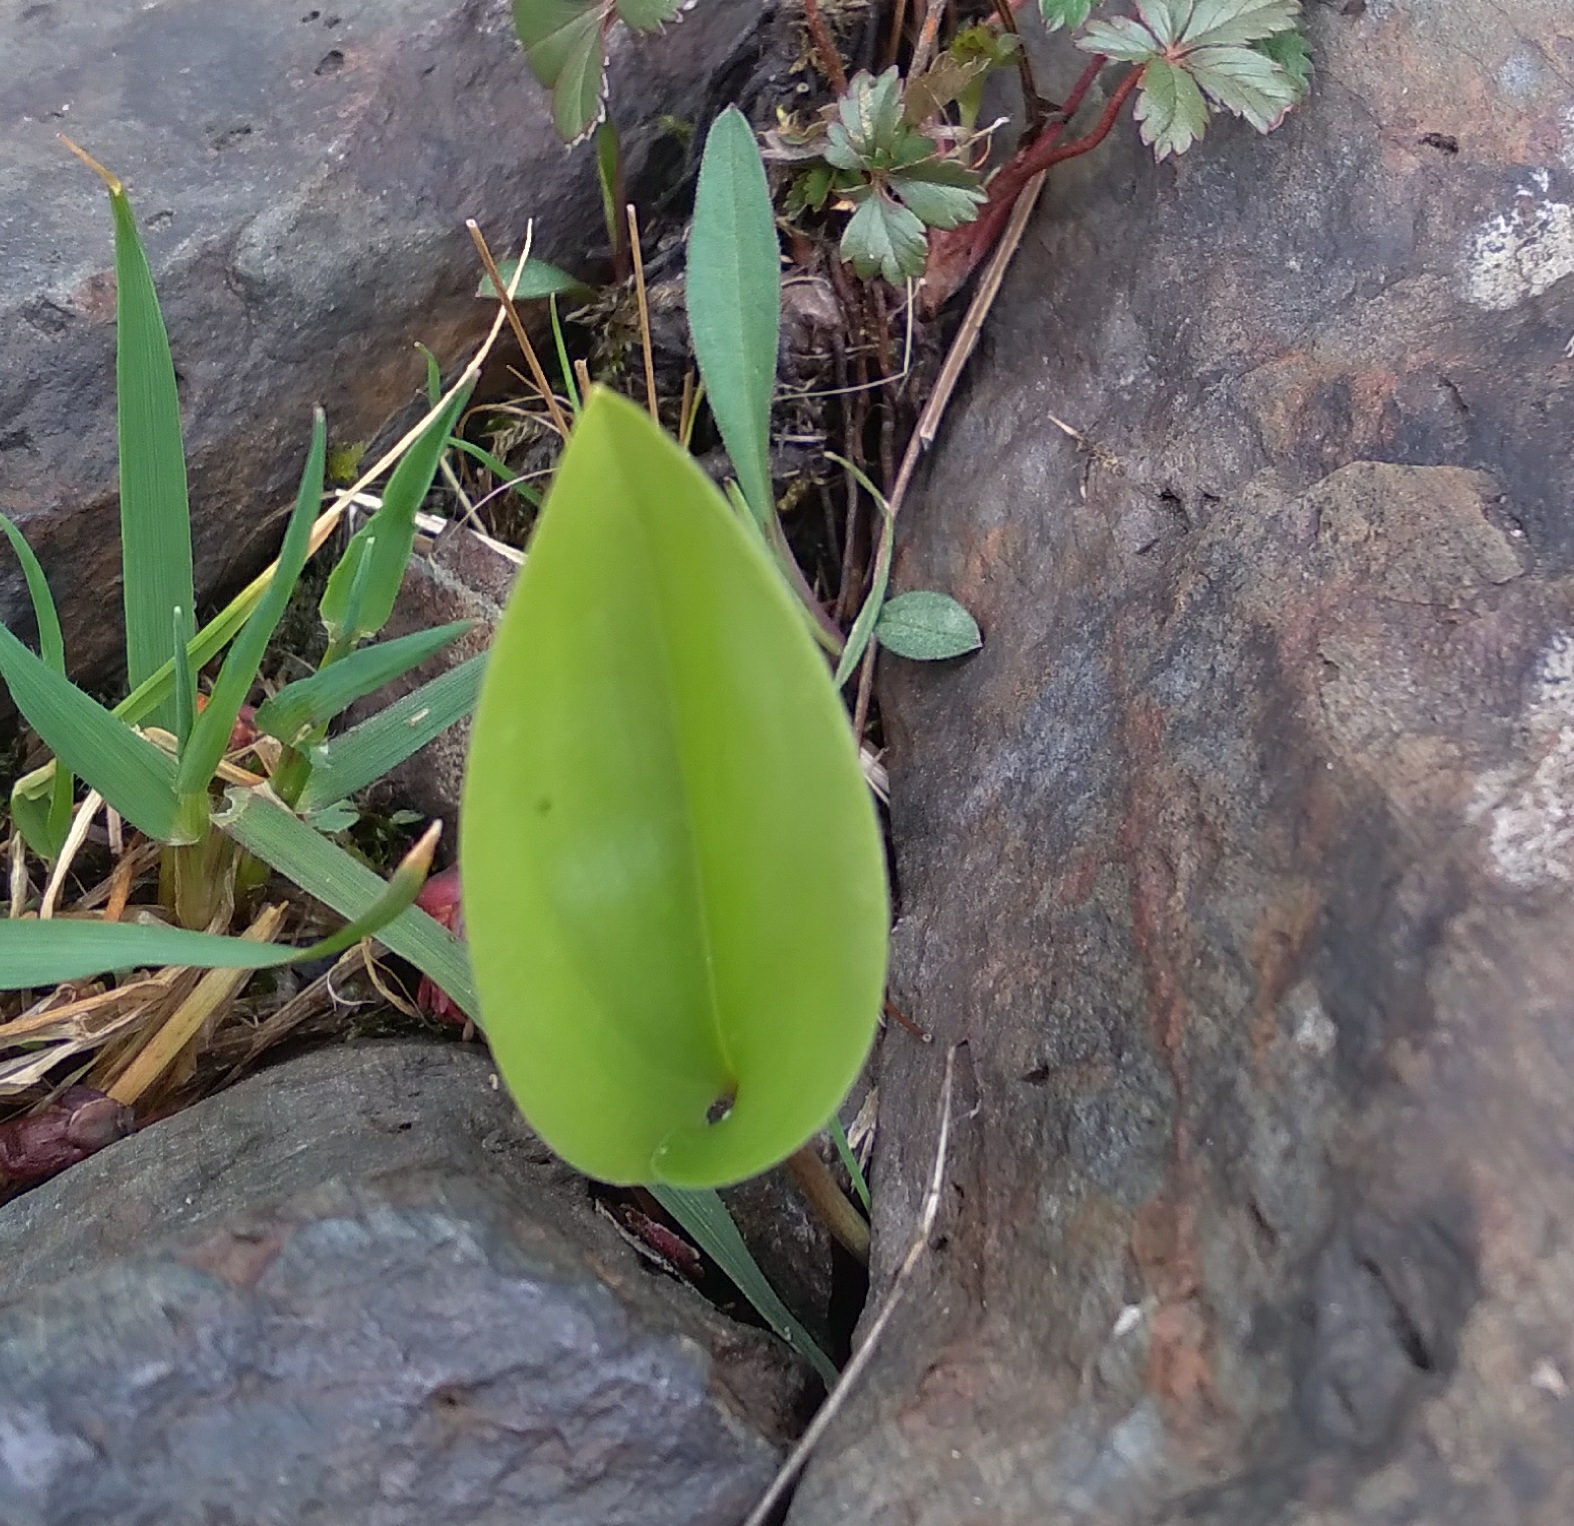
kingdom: Plantae
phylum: Tracheophyta
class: Liliopsida
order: Asparagales
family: Asparagaceae
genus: Maianthemum
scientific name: Maianthemum canadense
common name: False lily-of-the-valley
